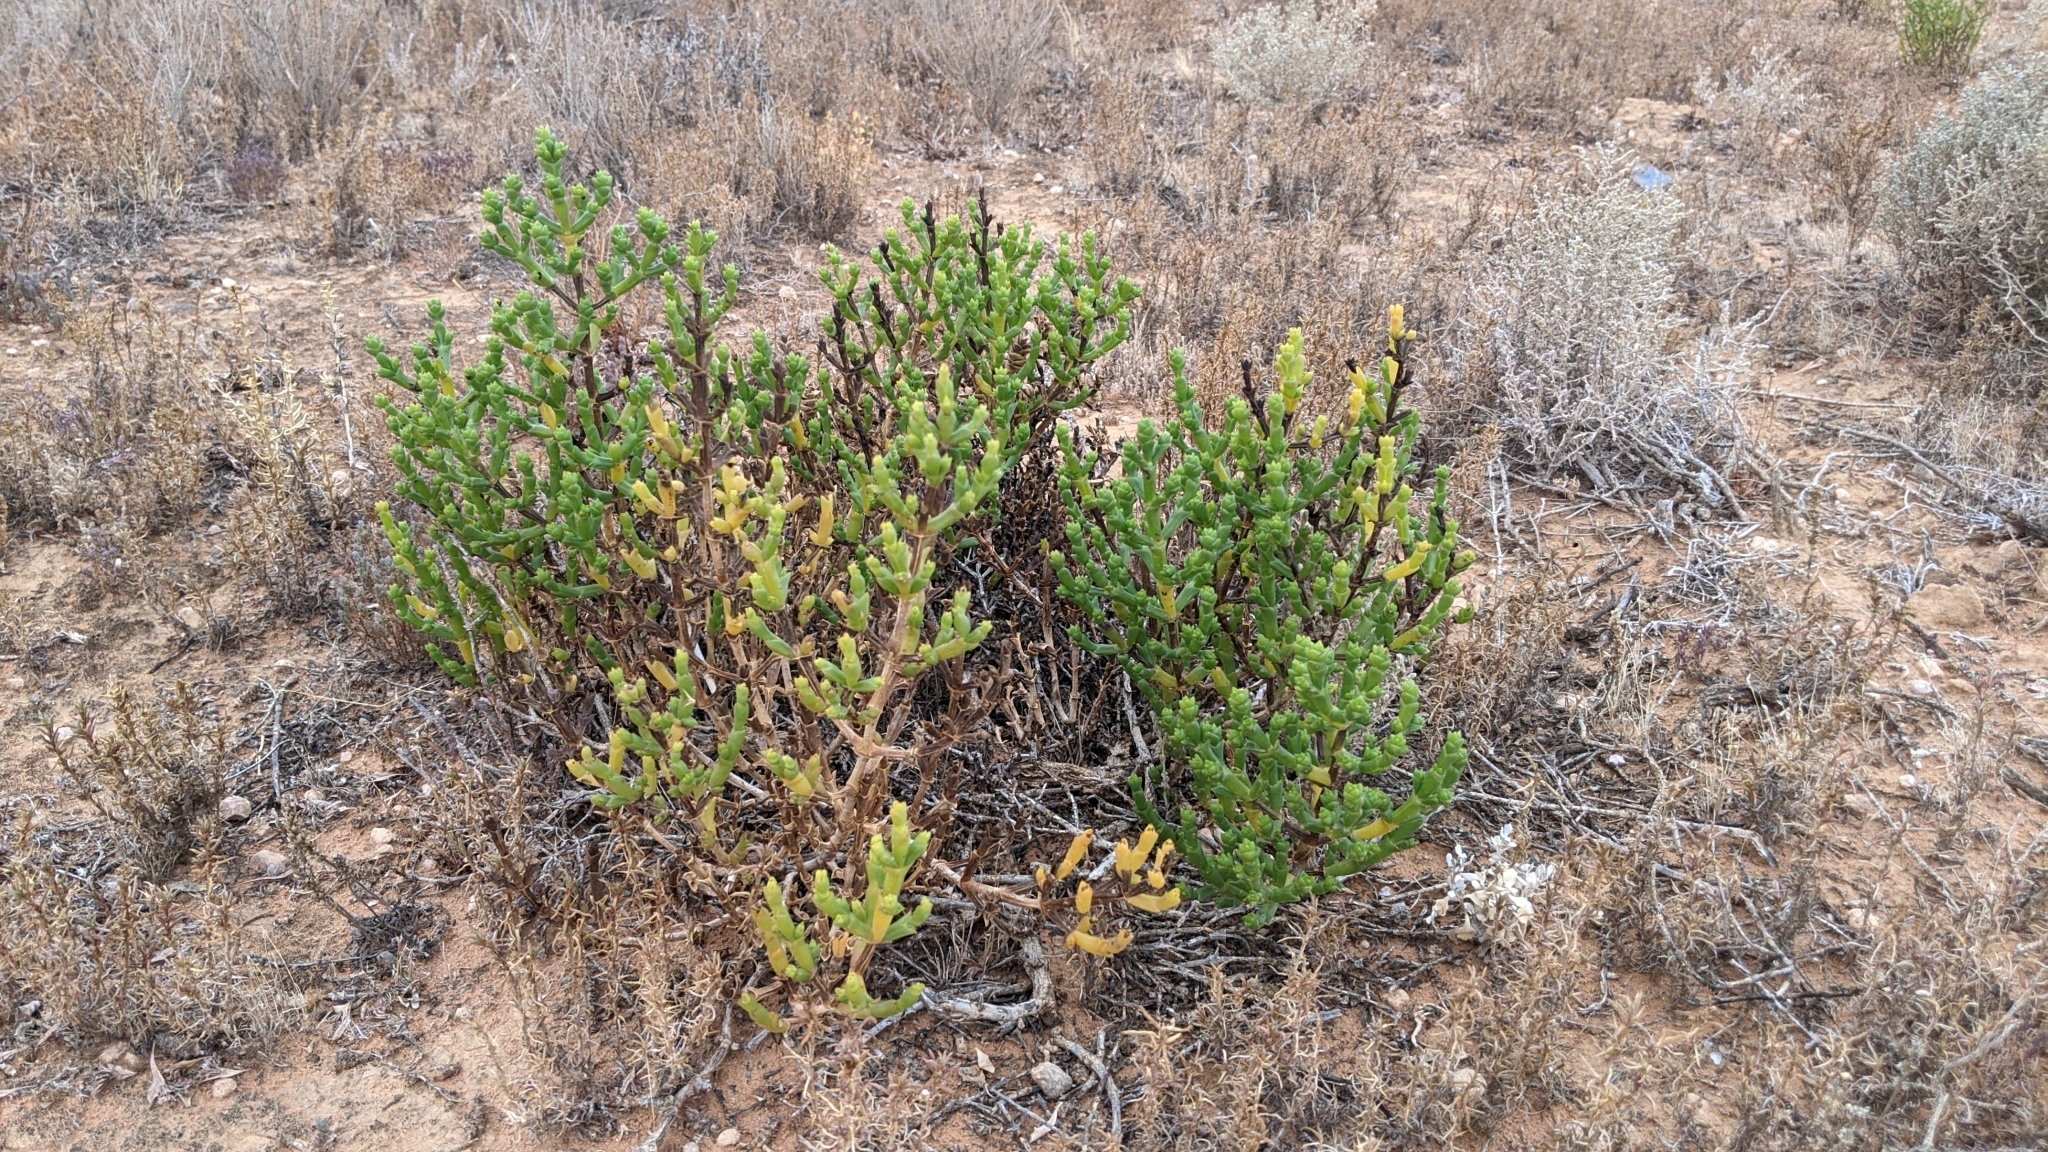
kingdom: Plantae
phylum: Tracheophyta
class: Magnoliopsida
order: Caryophyllales
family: Amaranthaceae
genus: Tecticornia
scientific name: Tecticornia triandra
